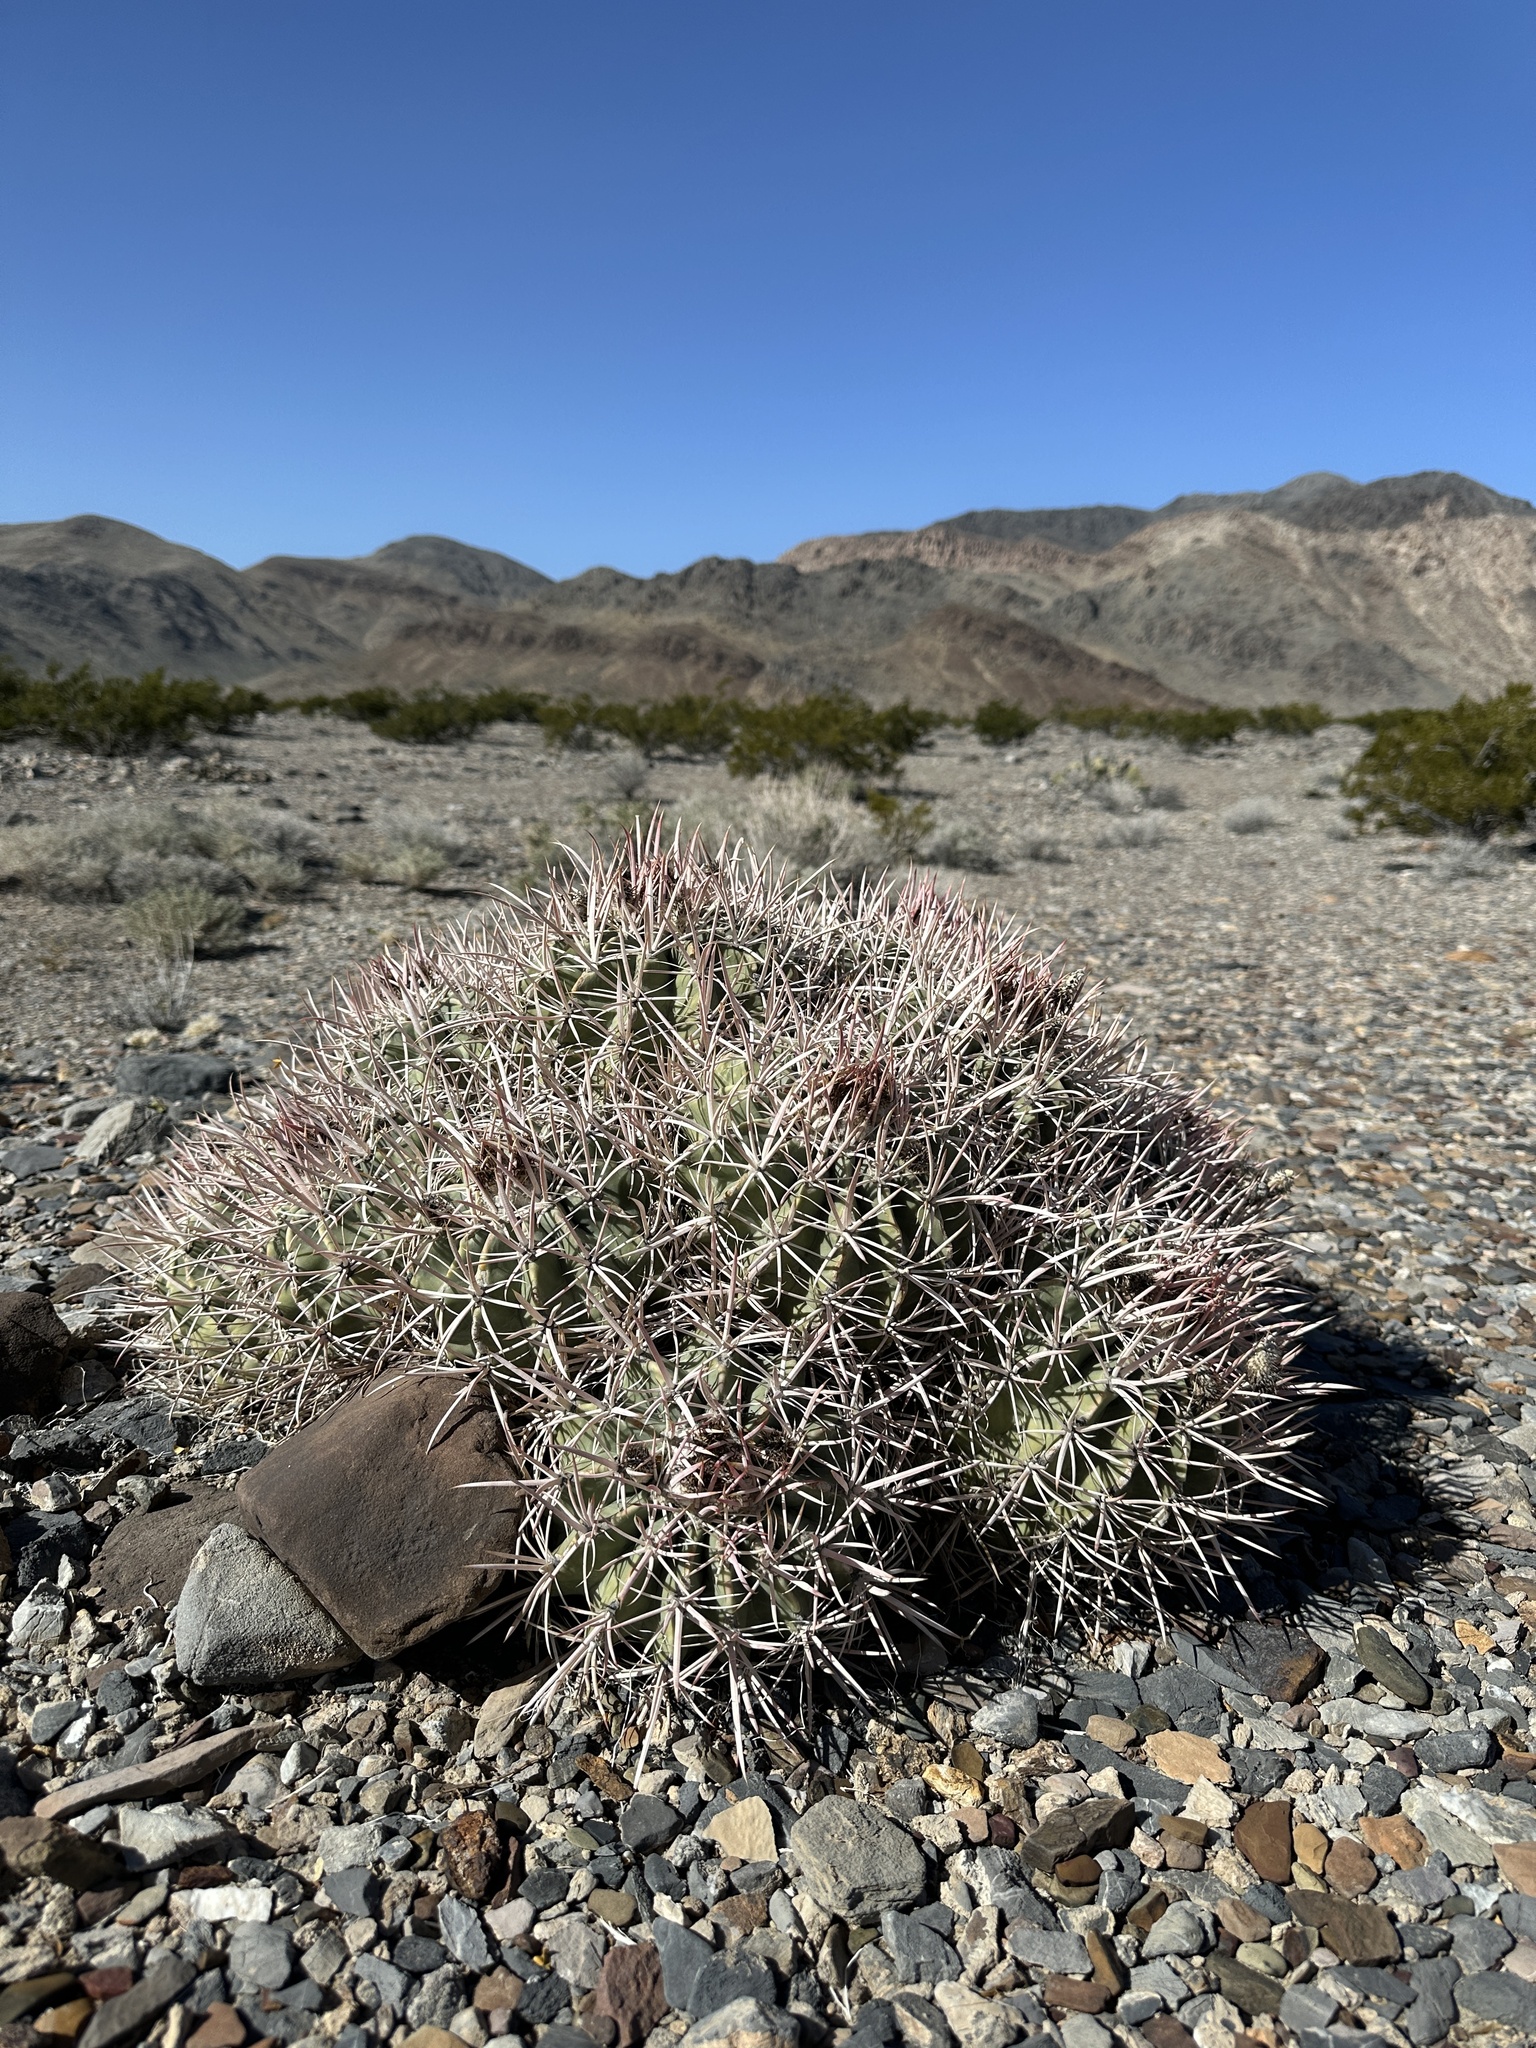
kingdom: Plantae
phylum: Tracheophyta
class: Magnoliopsida
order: Caryophyllales
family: Cactaceae
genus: Echinocactus
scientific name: Echinocactus polycephalus
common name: Cottontop cactus
